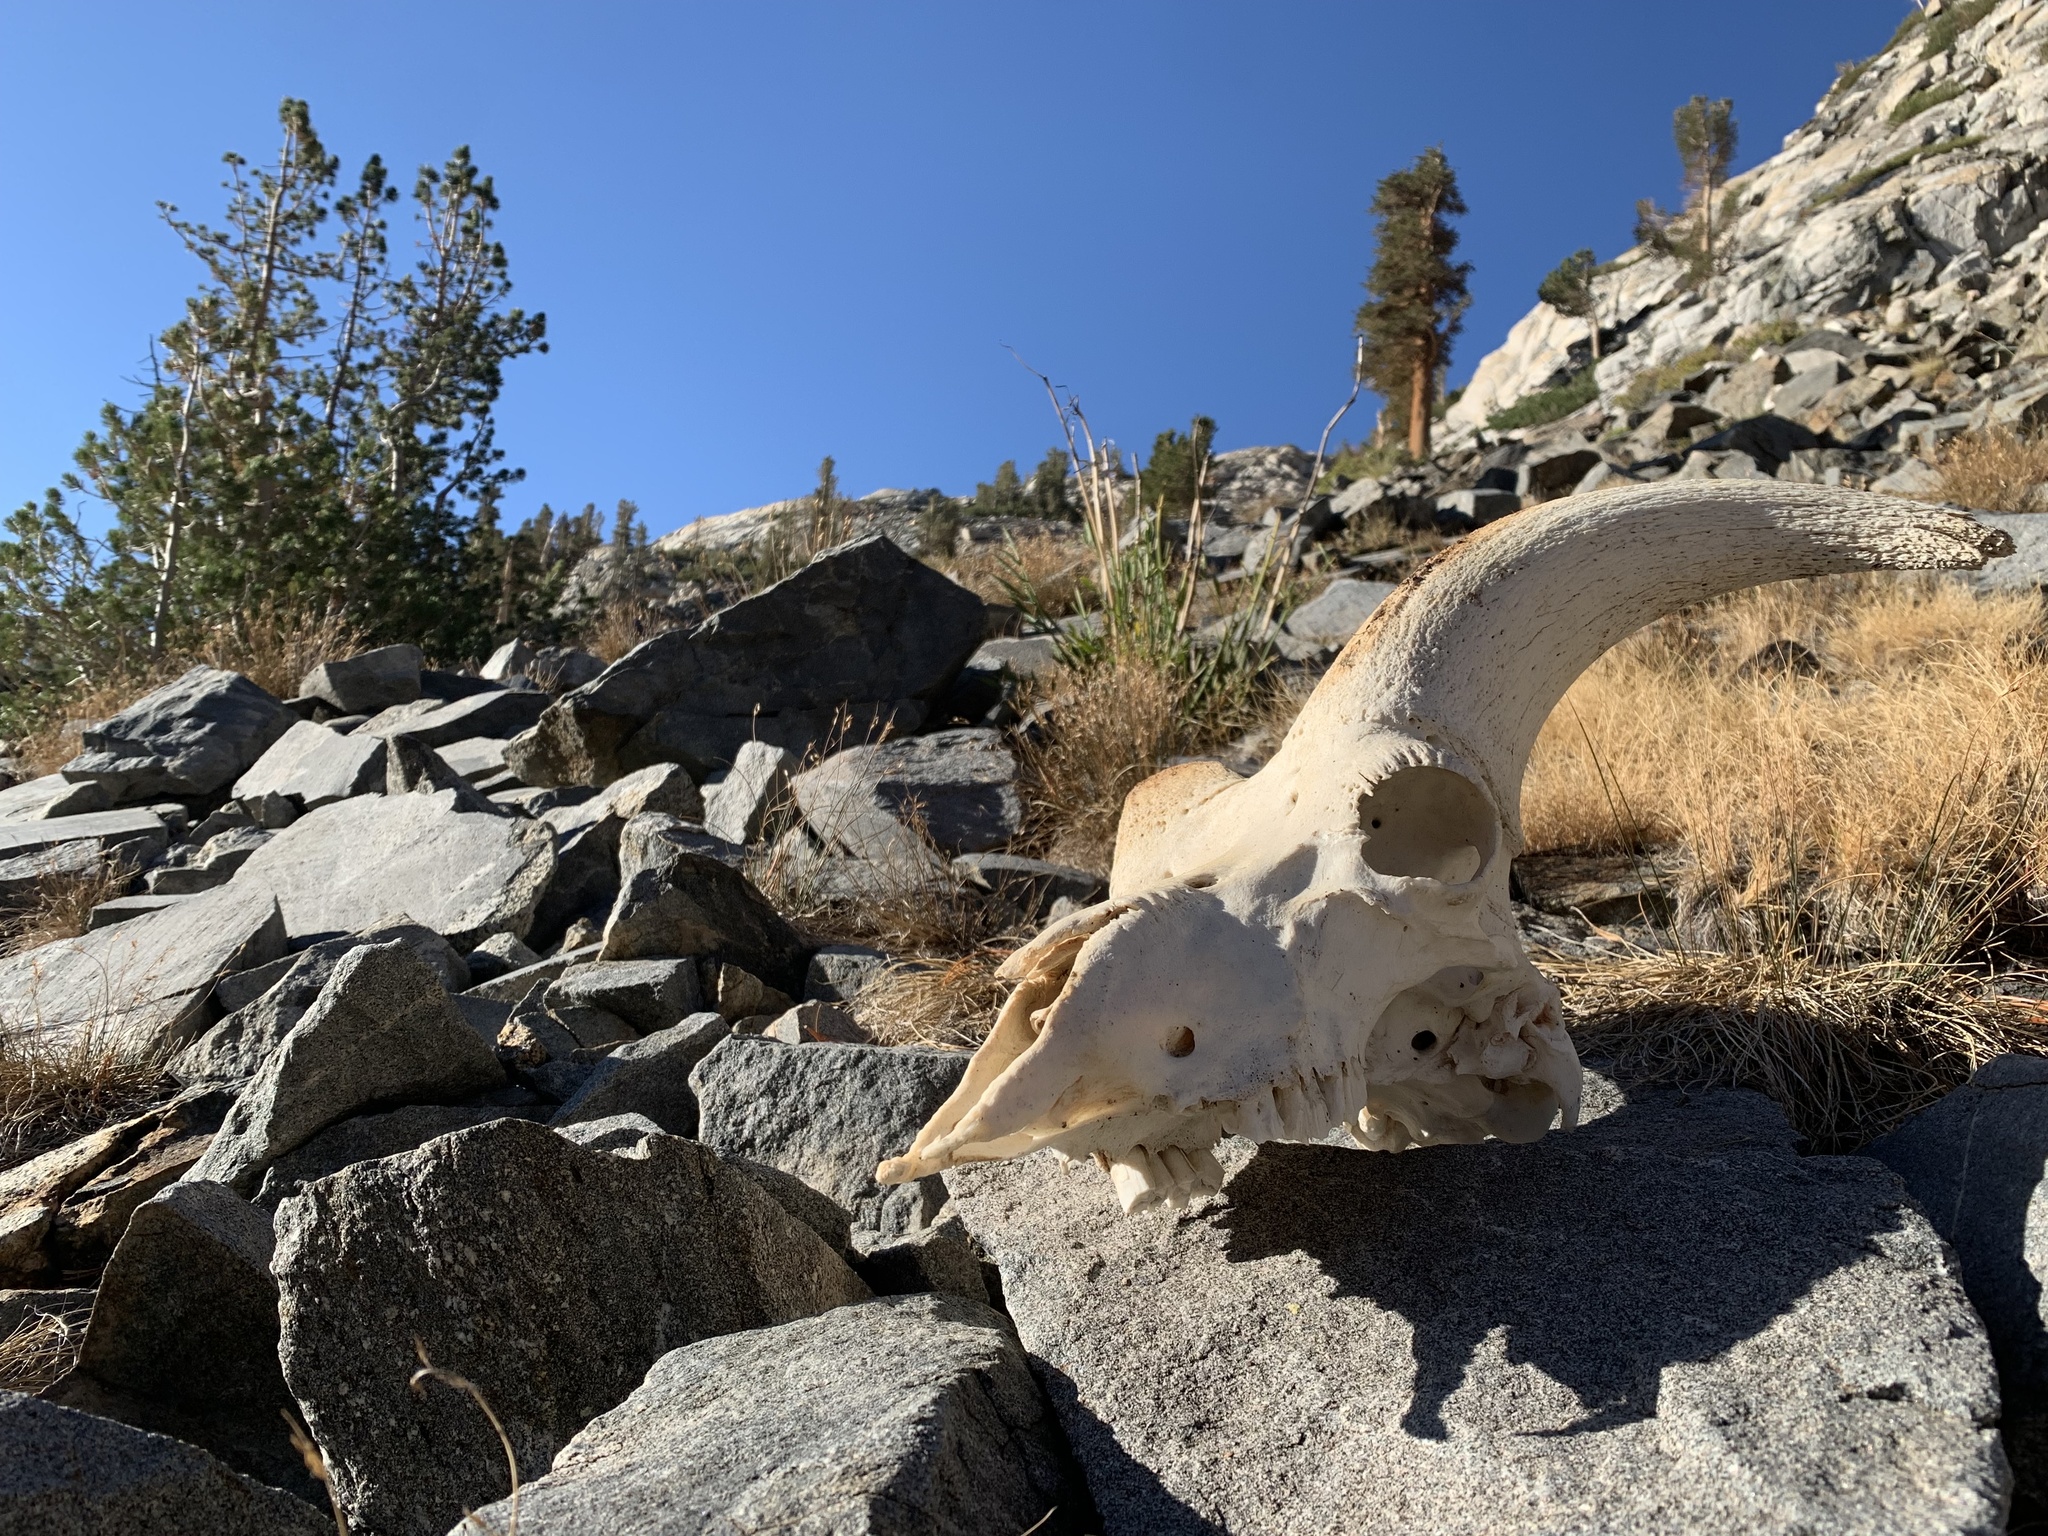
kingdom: Animalia
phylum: Chordata
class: Mammalia
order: Artiodactyla
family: Bovidae
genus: Ovis
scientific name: Ovis canadensis
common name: Bighorn sheep
